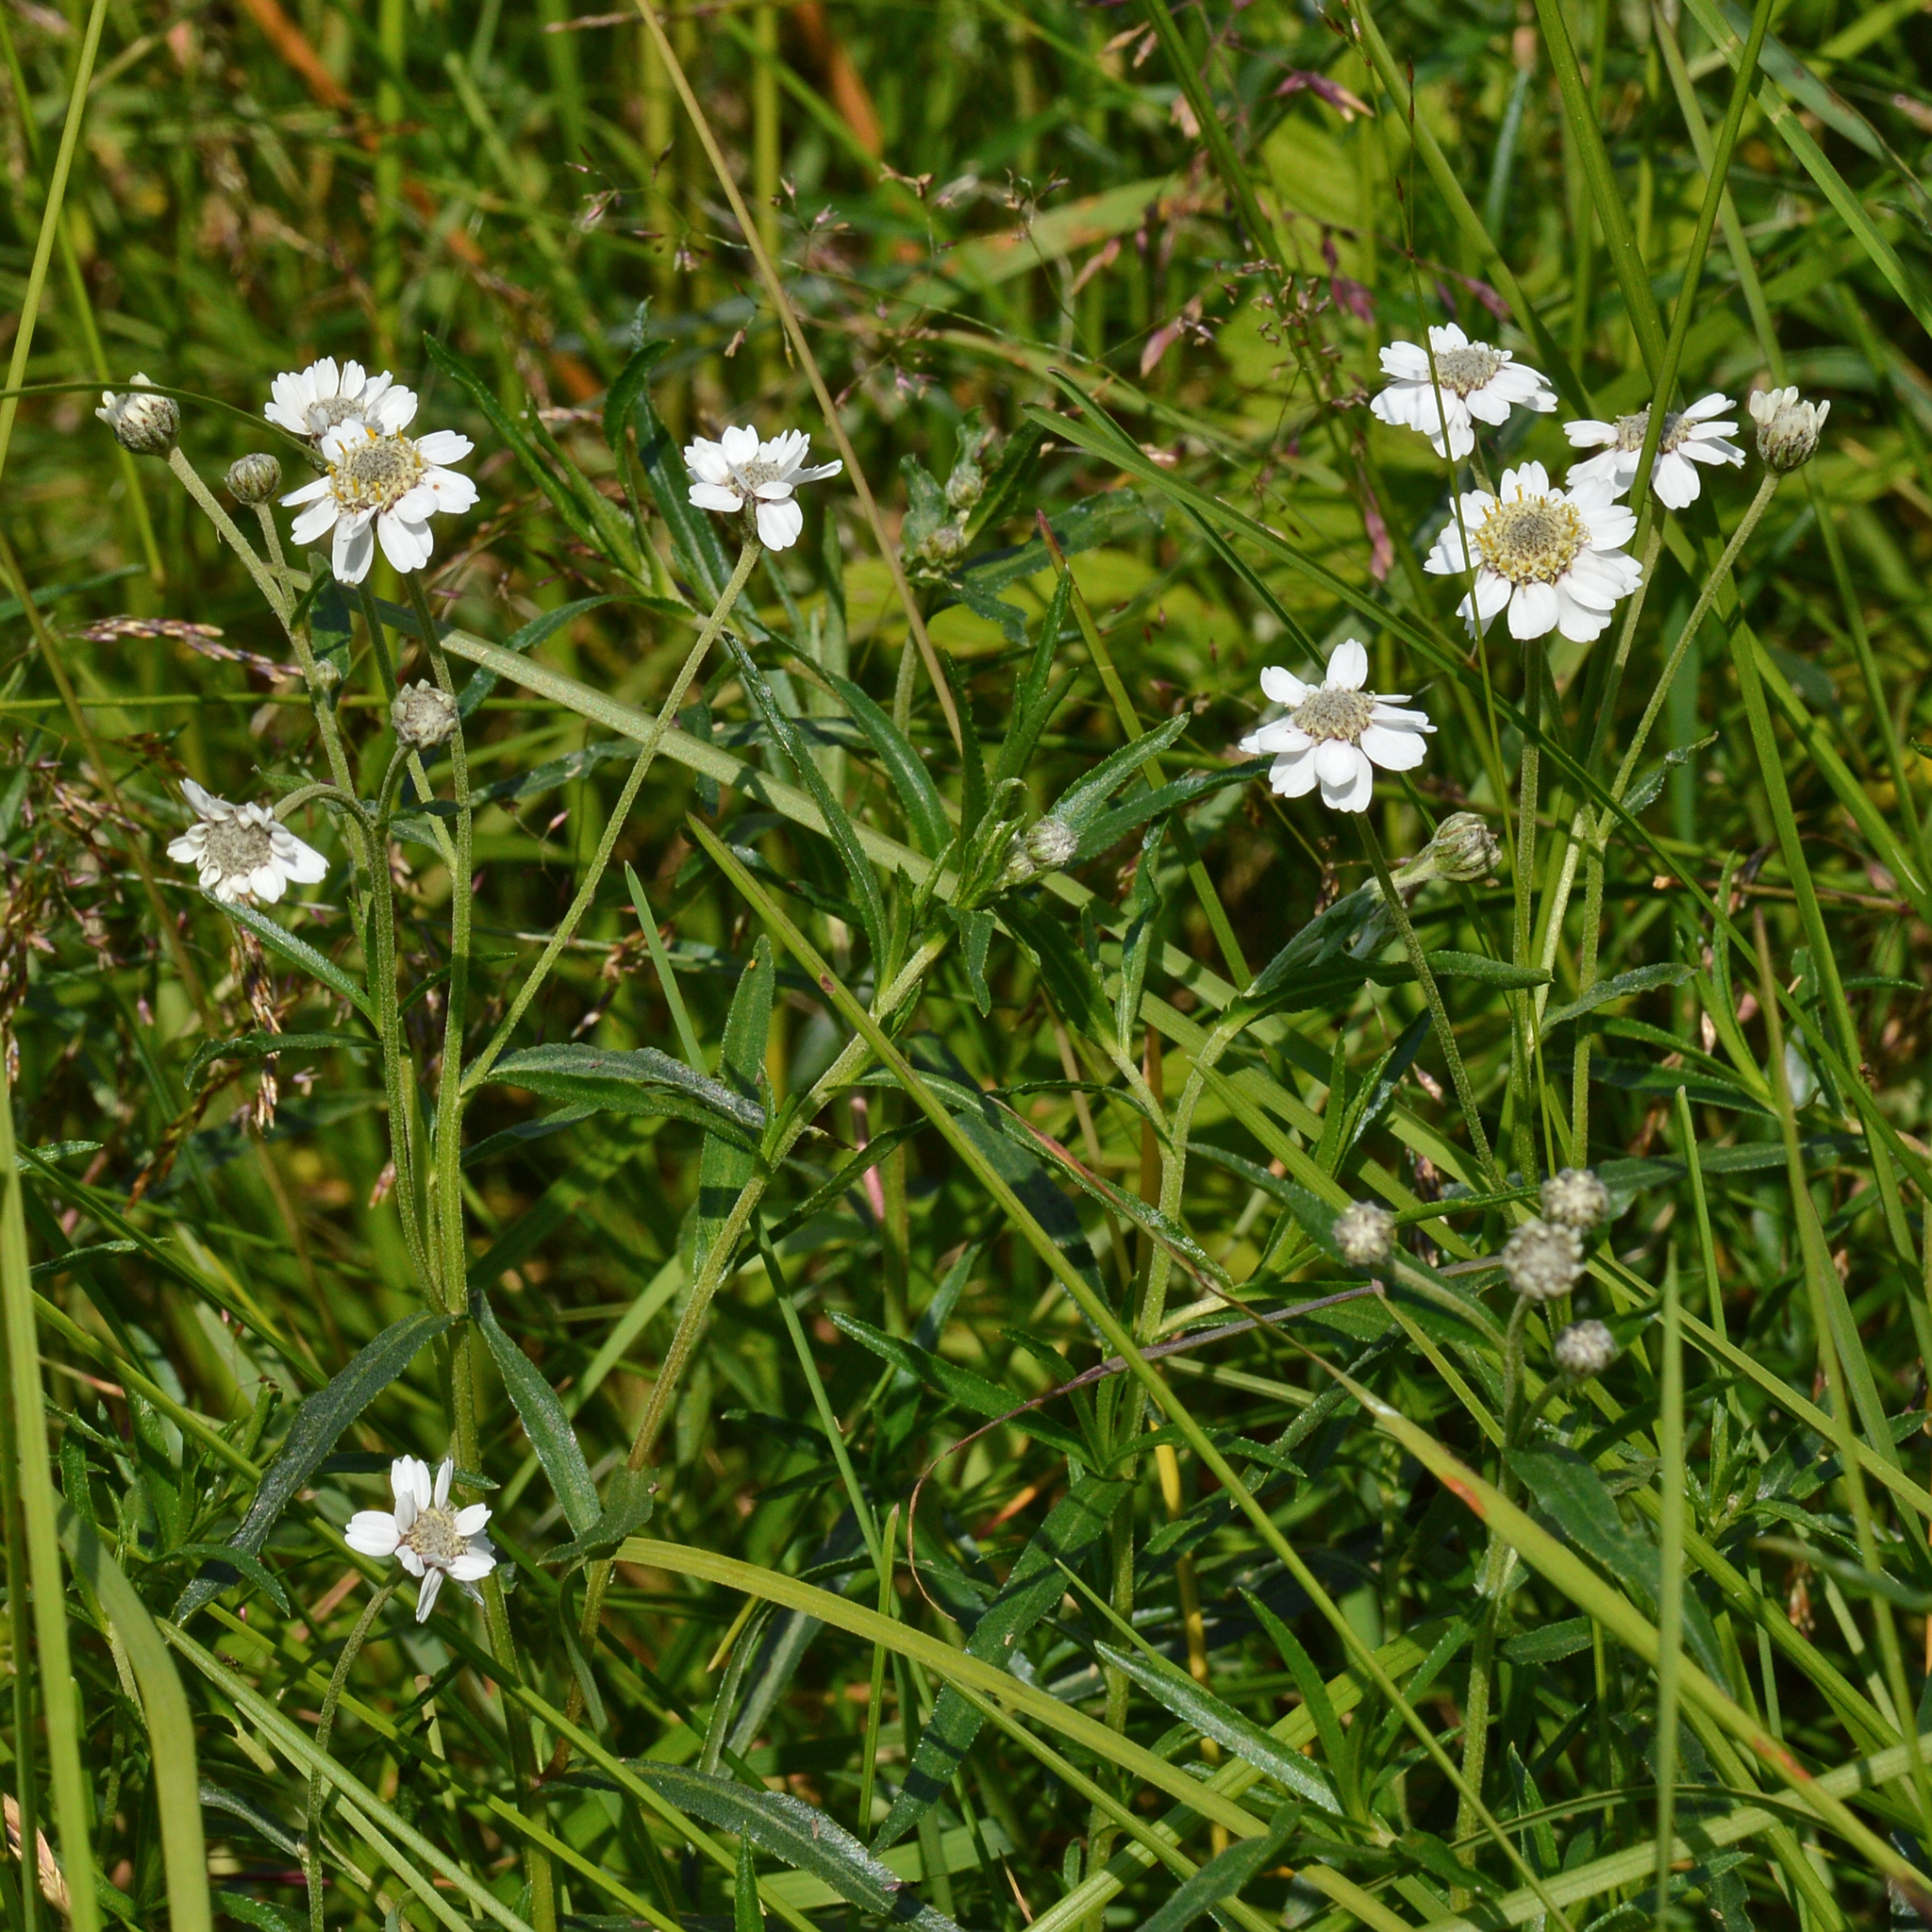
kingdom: Plantae
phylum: Tracheophyta
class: Magnoliopsida
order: Asterales
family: Asteraceae
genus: Achillea
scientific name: Achillea ptarmica
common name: Sneezeweed
